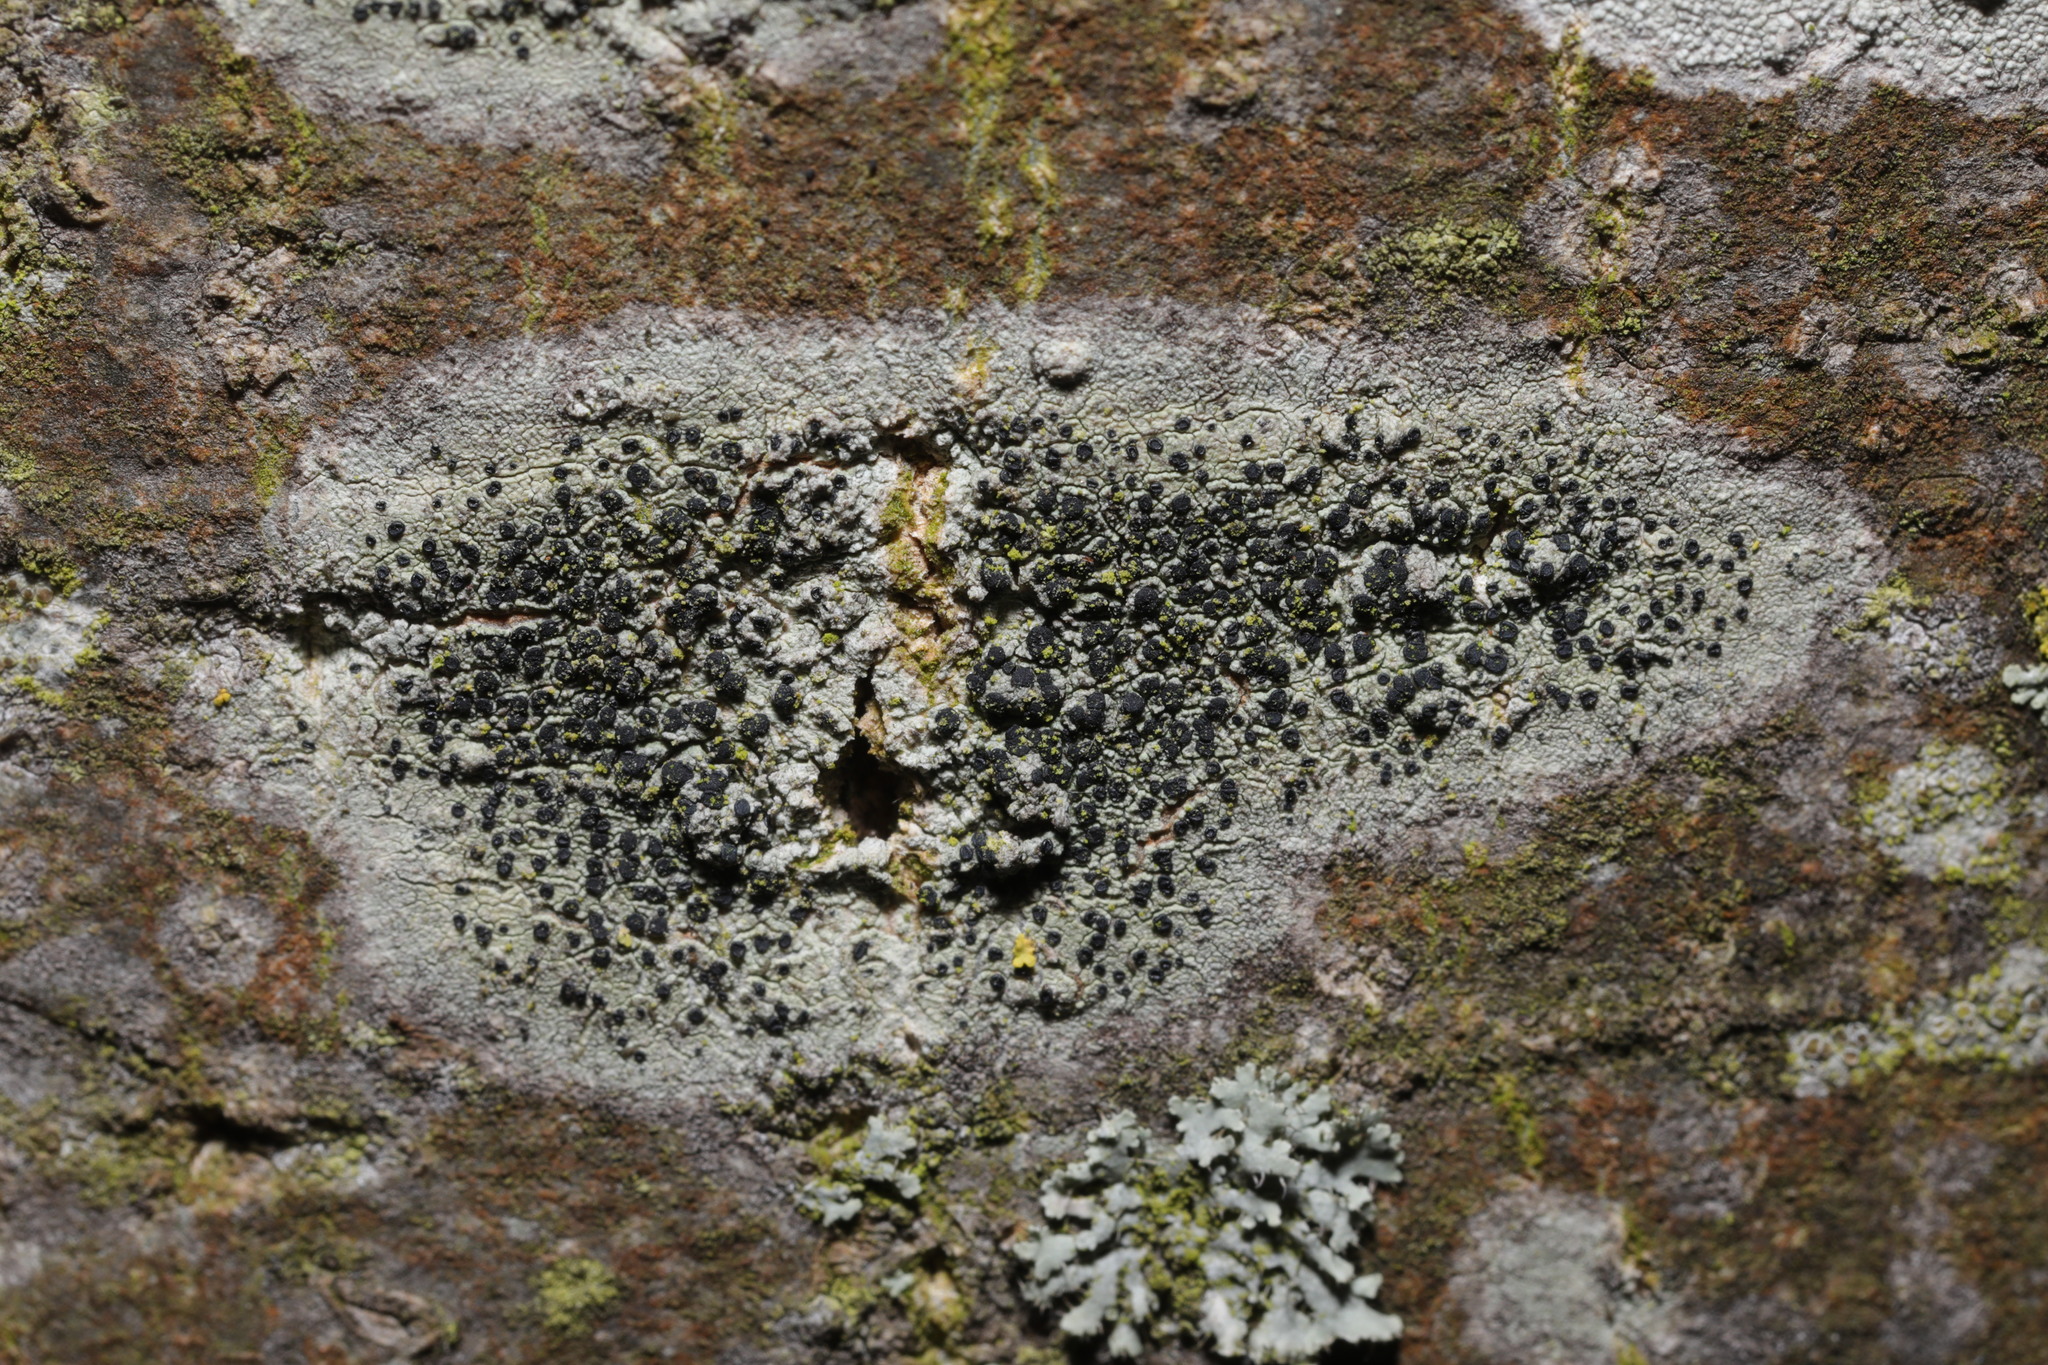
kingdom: Fungi
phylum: Ascomycota
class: Lecanoromycetes
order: Lecanorales
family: Lecanoraceae
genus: Lecidella
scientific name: Lecidella elaeochroma
